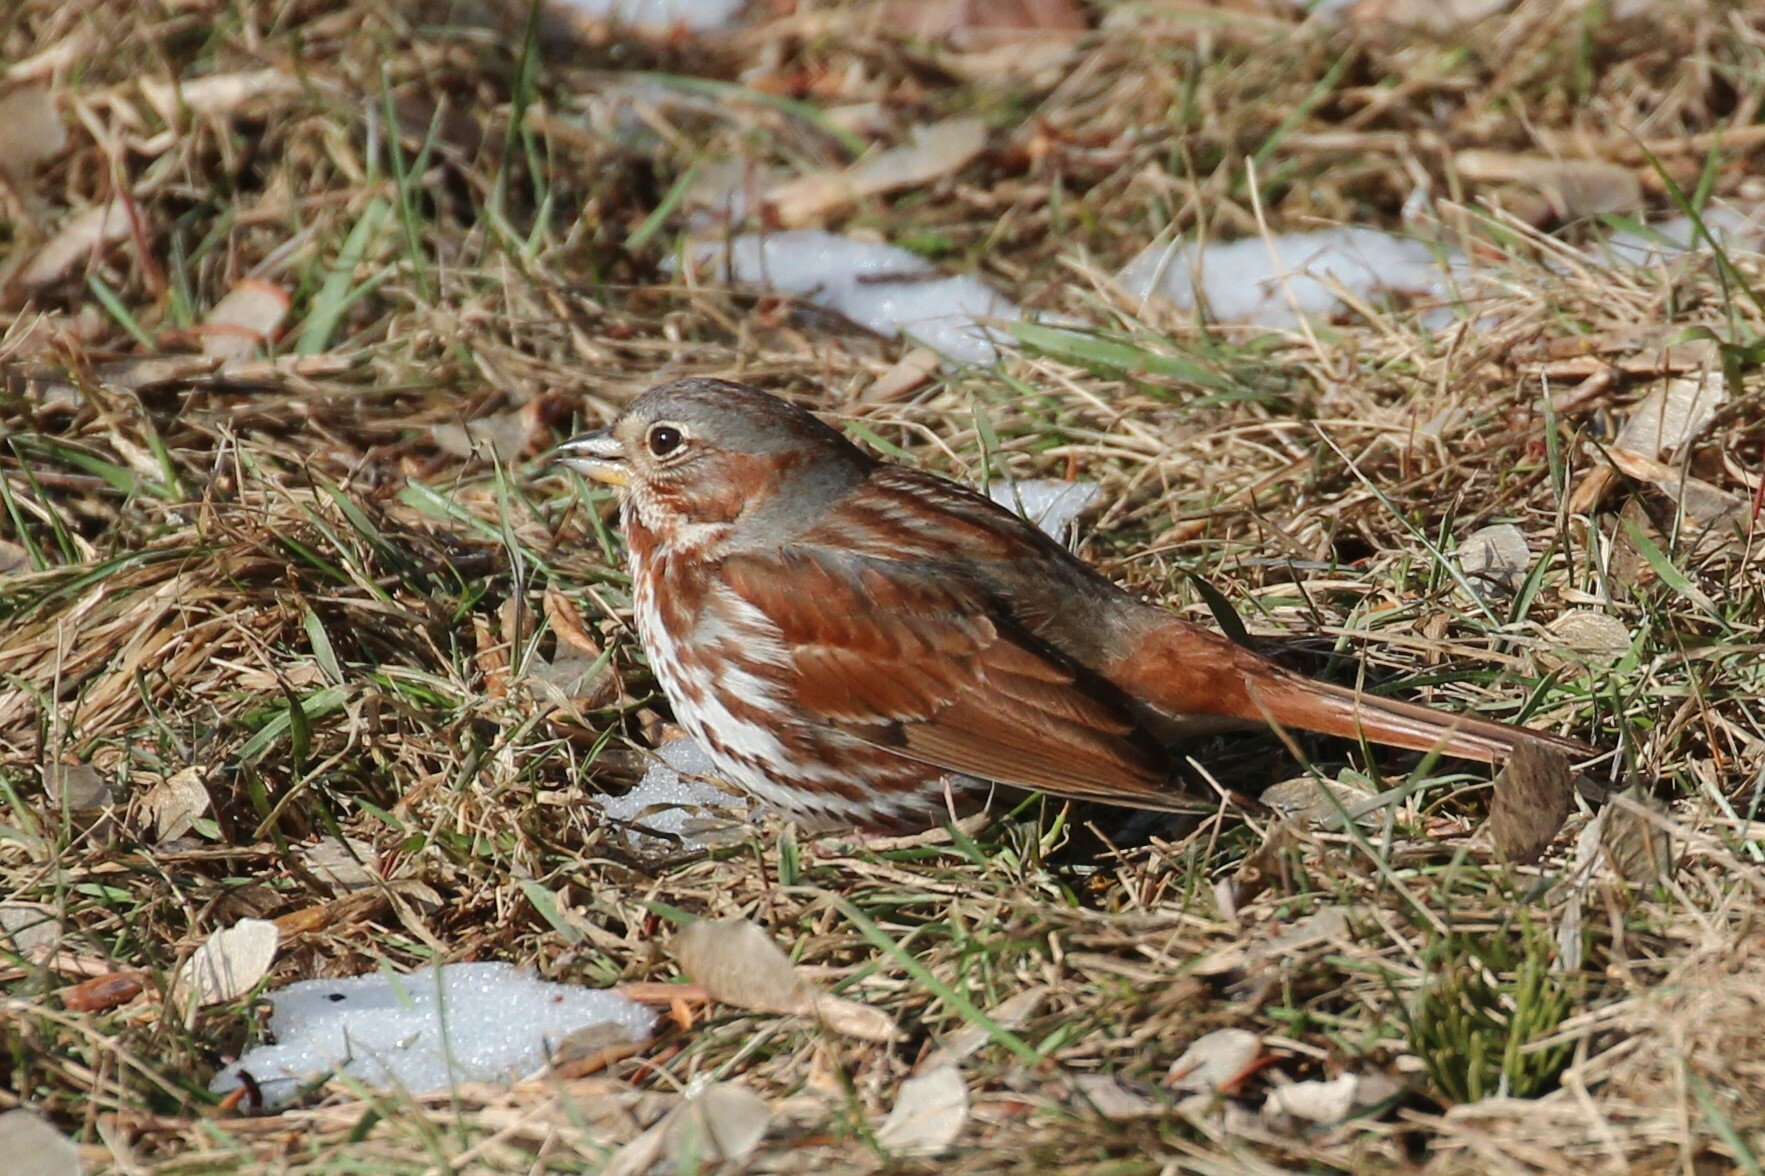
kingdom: Animalia
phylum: Chordata
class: Aves
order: Passeriformes
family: Passerellidae
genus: Passerella
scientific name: Passerella iliaca
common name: Fox sparrow
